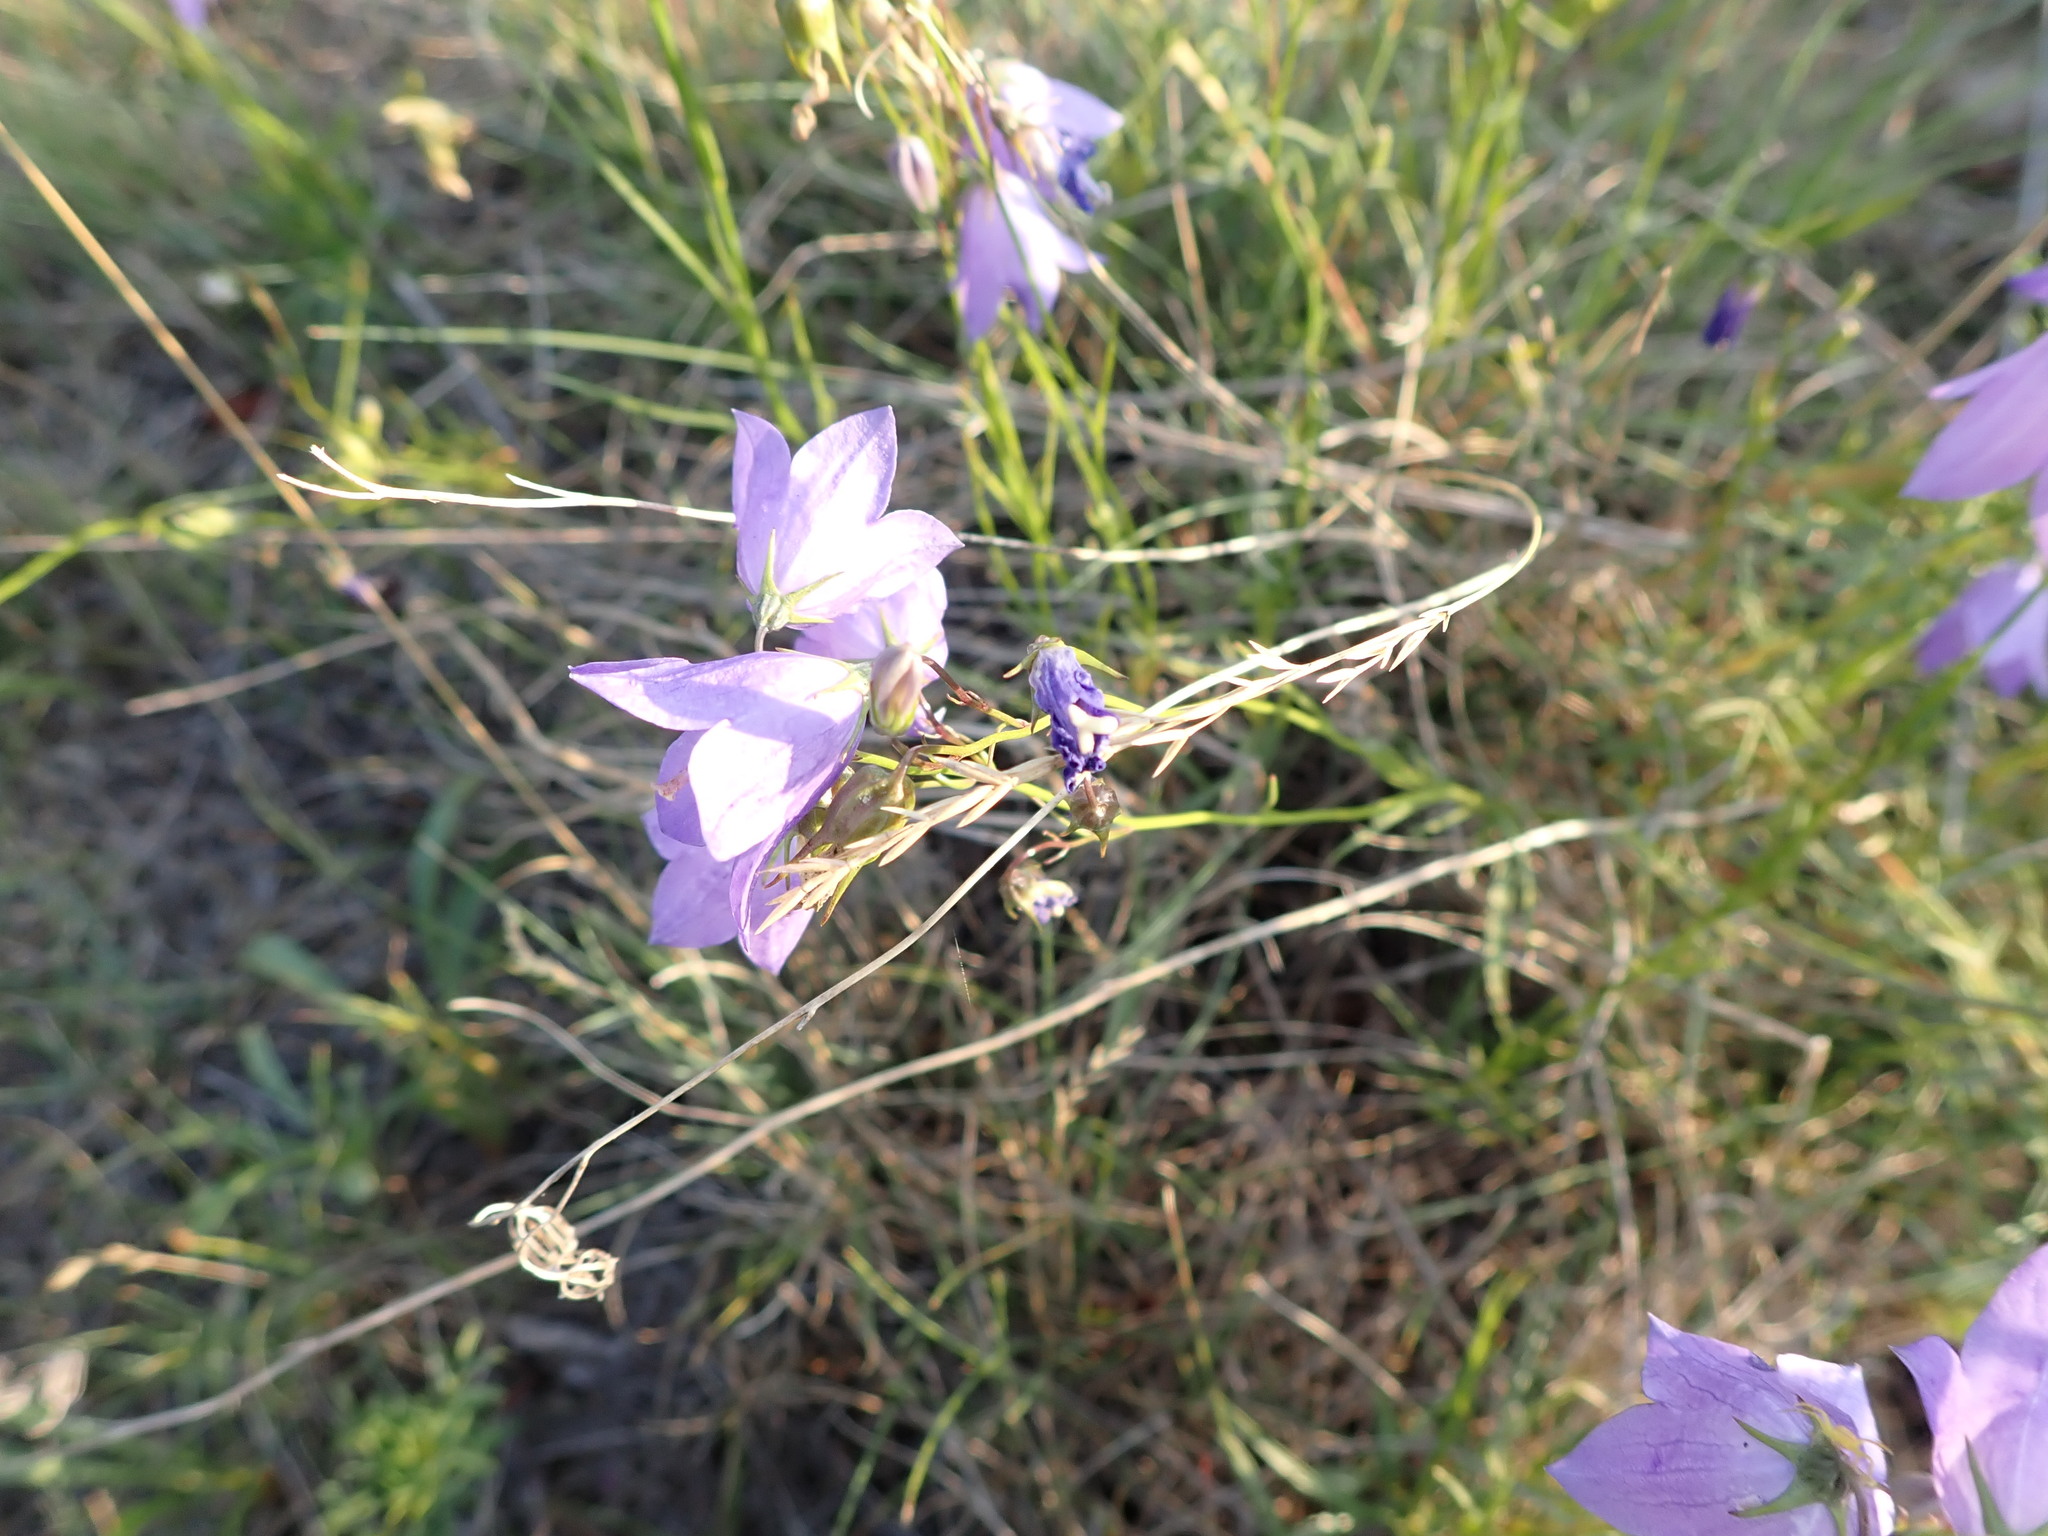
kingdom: Plantae
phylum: Tracheophyta
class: Magnoliopsida
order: Asterales
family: Campanulaceae
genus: Campanula
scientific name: Campanula petiolata
